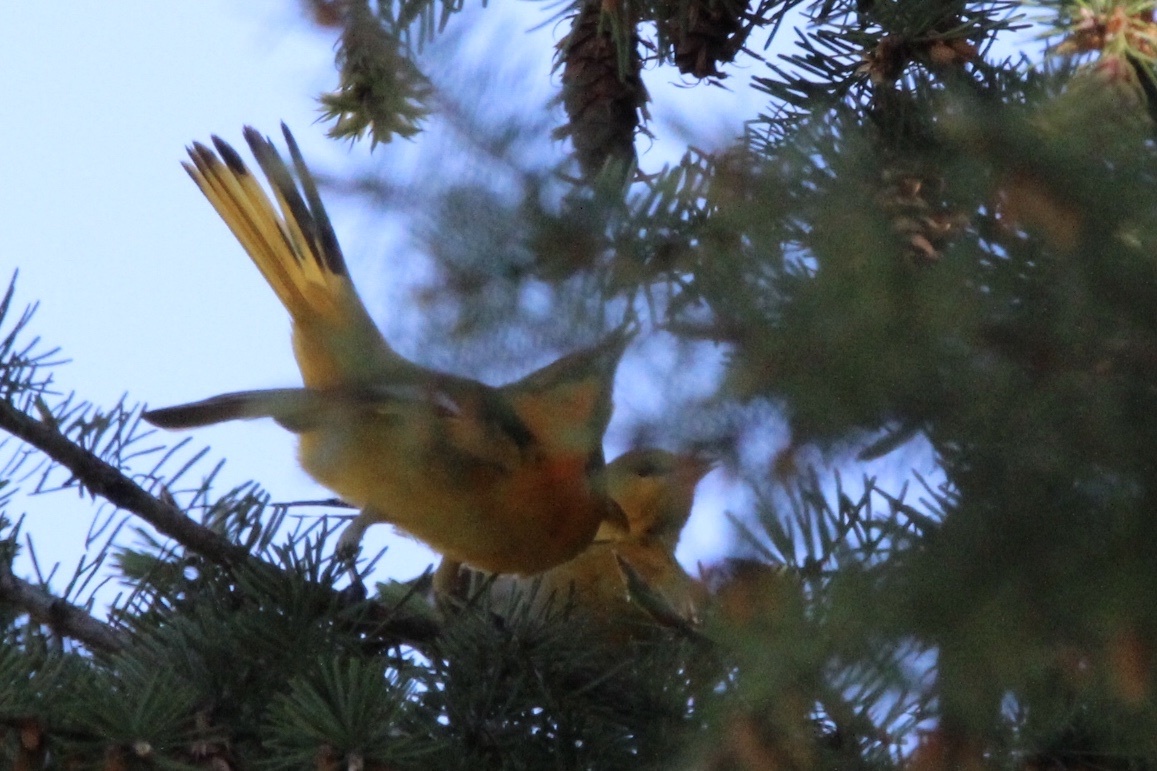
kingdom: Animalia
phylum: Chordata
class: Aves
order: Passeriformes
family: Icteridae
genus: Icterus
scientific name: Icterus bullockii
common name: Bullock's oriole
